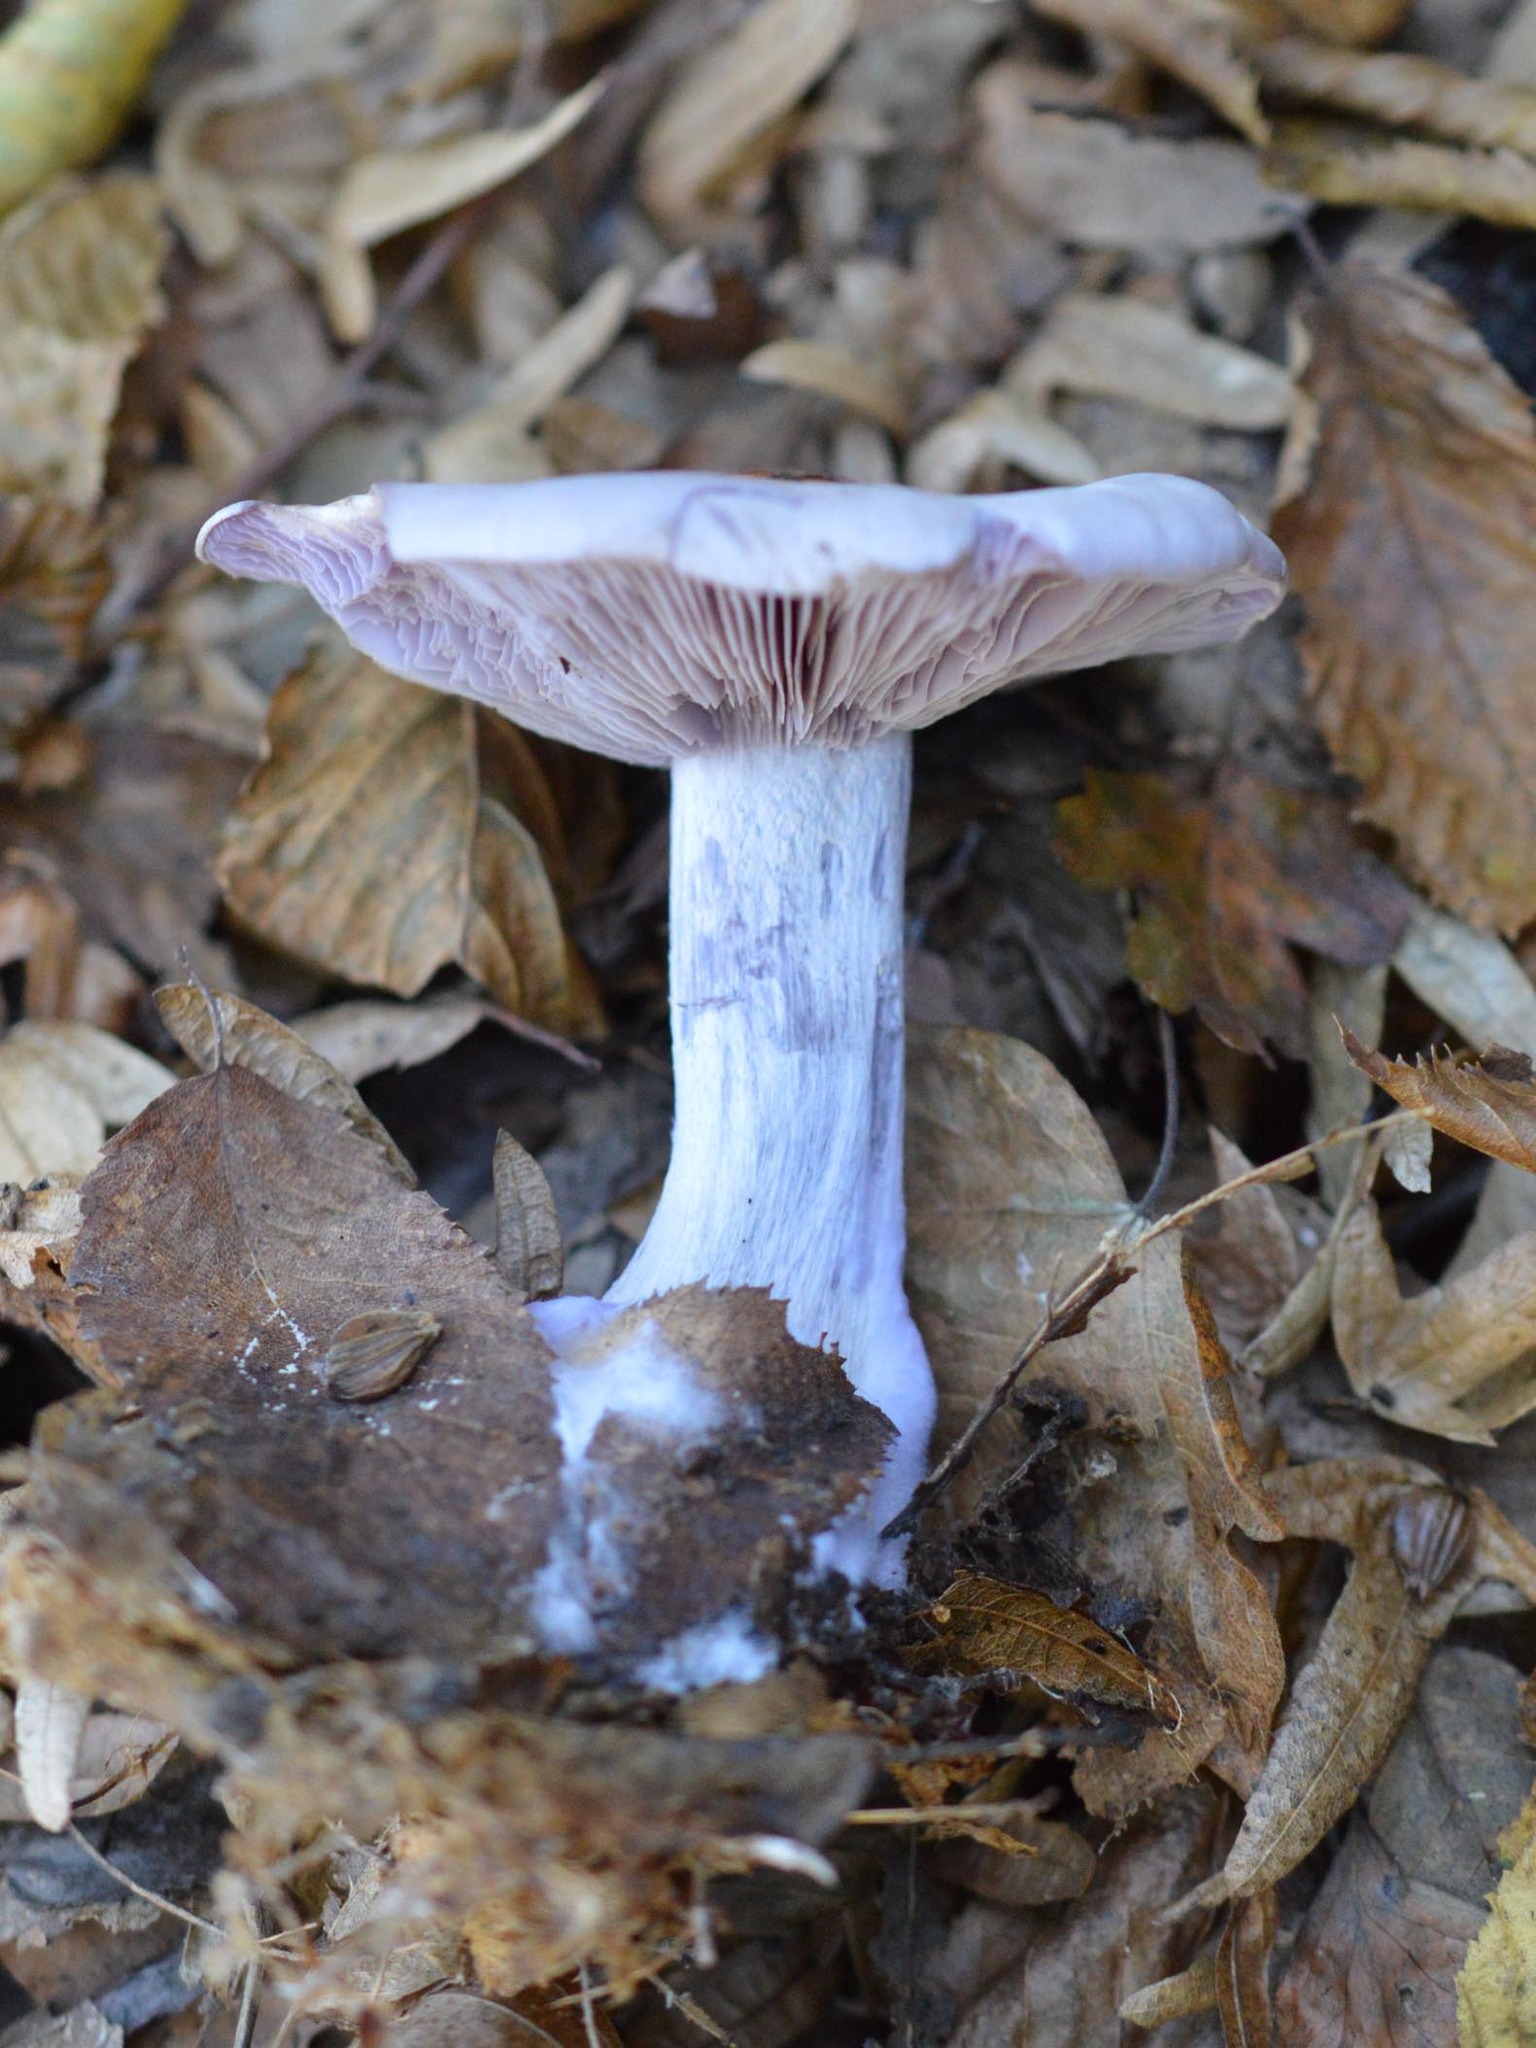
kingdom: Fungi
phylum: Basidiomycota
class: Agaricomycetes
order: Agaricales
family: Tricholomataceae
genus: Collybia
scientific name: Collybia
